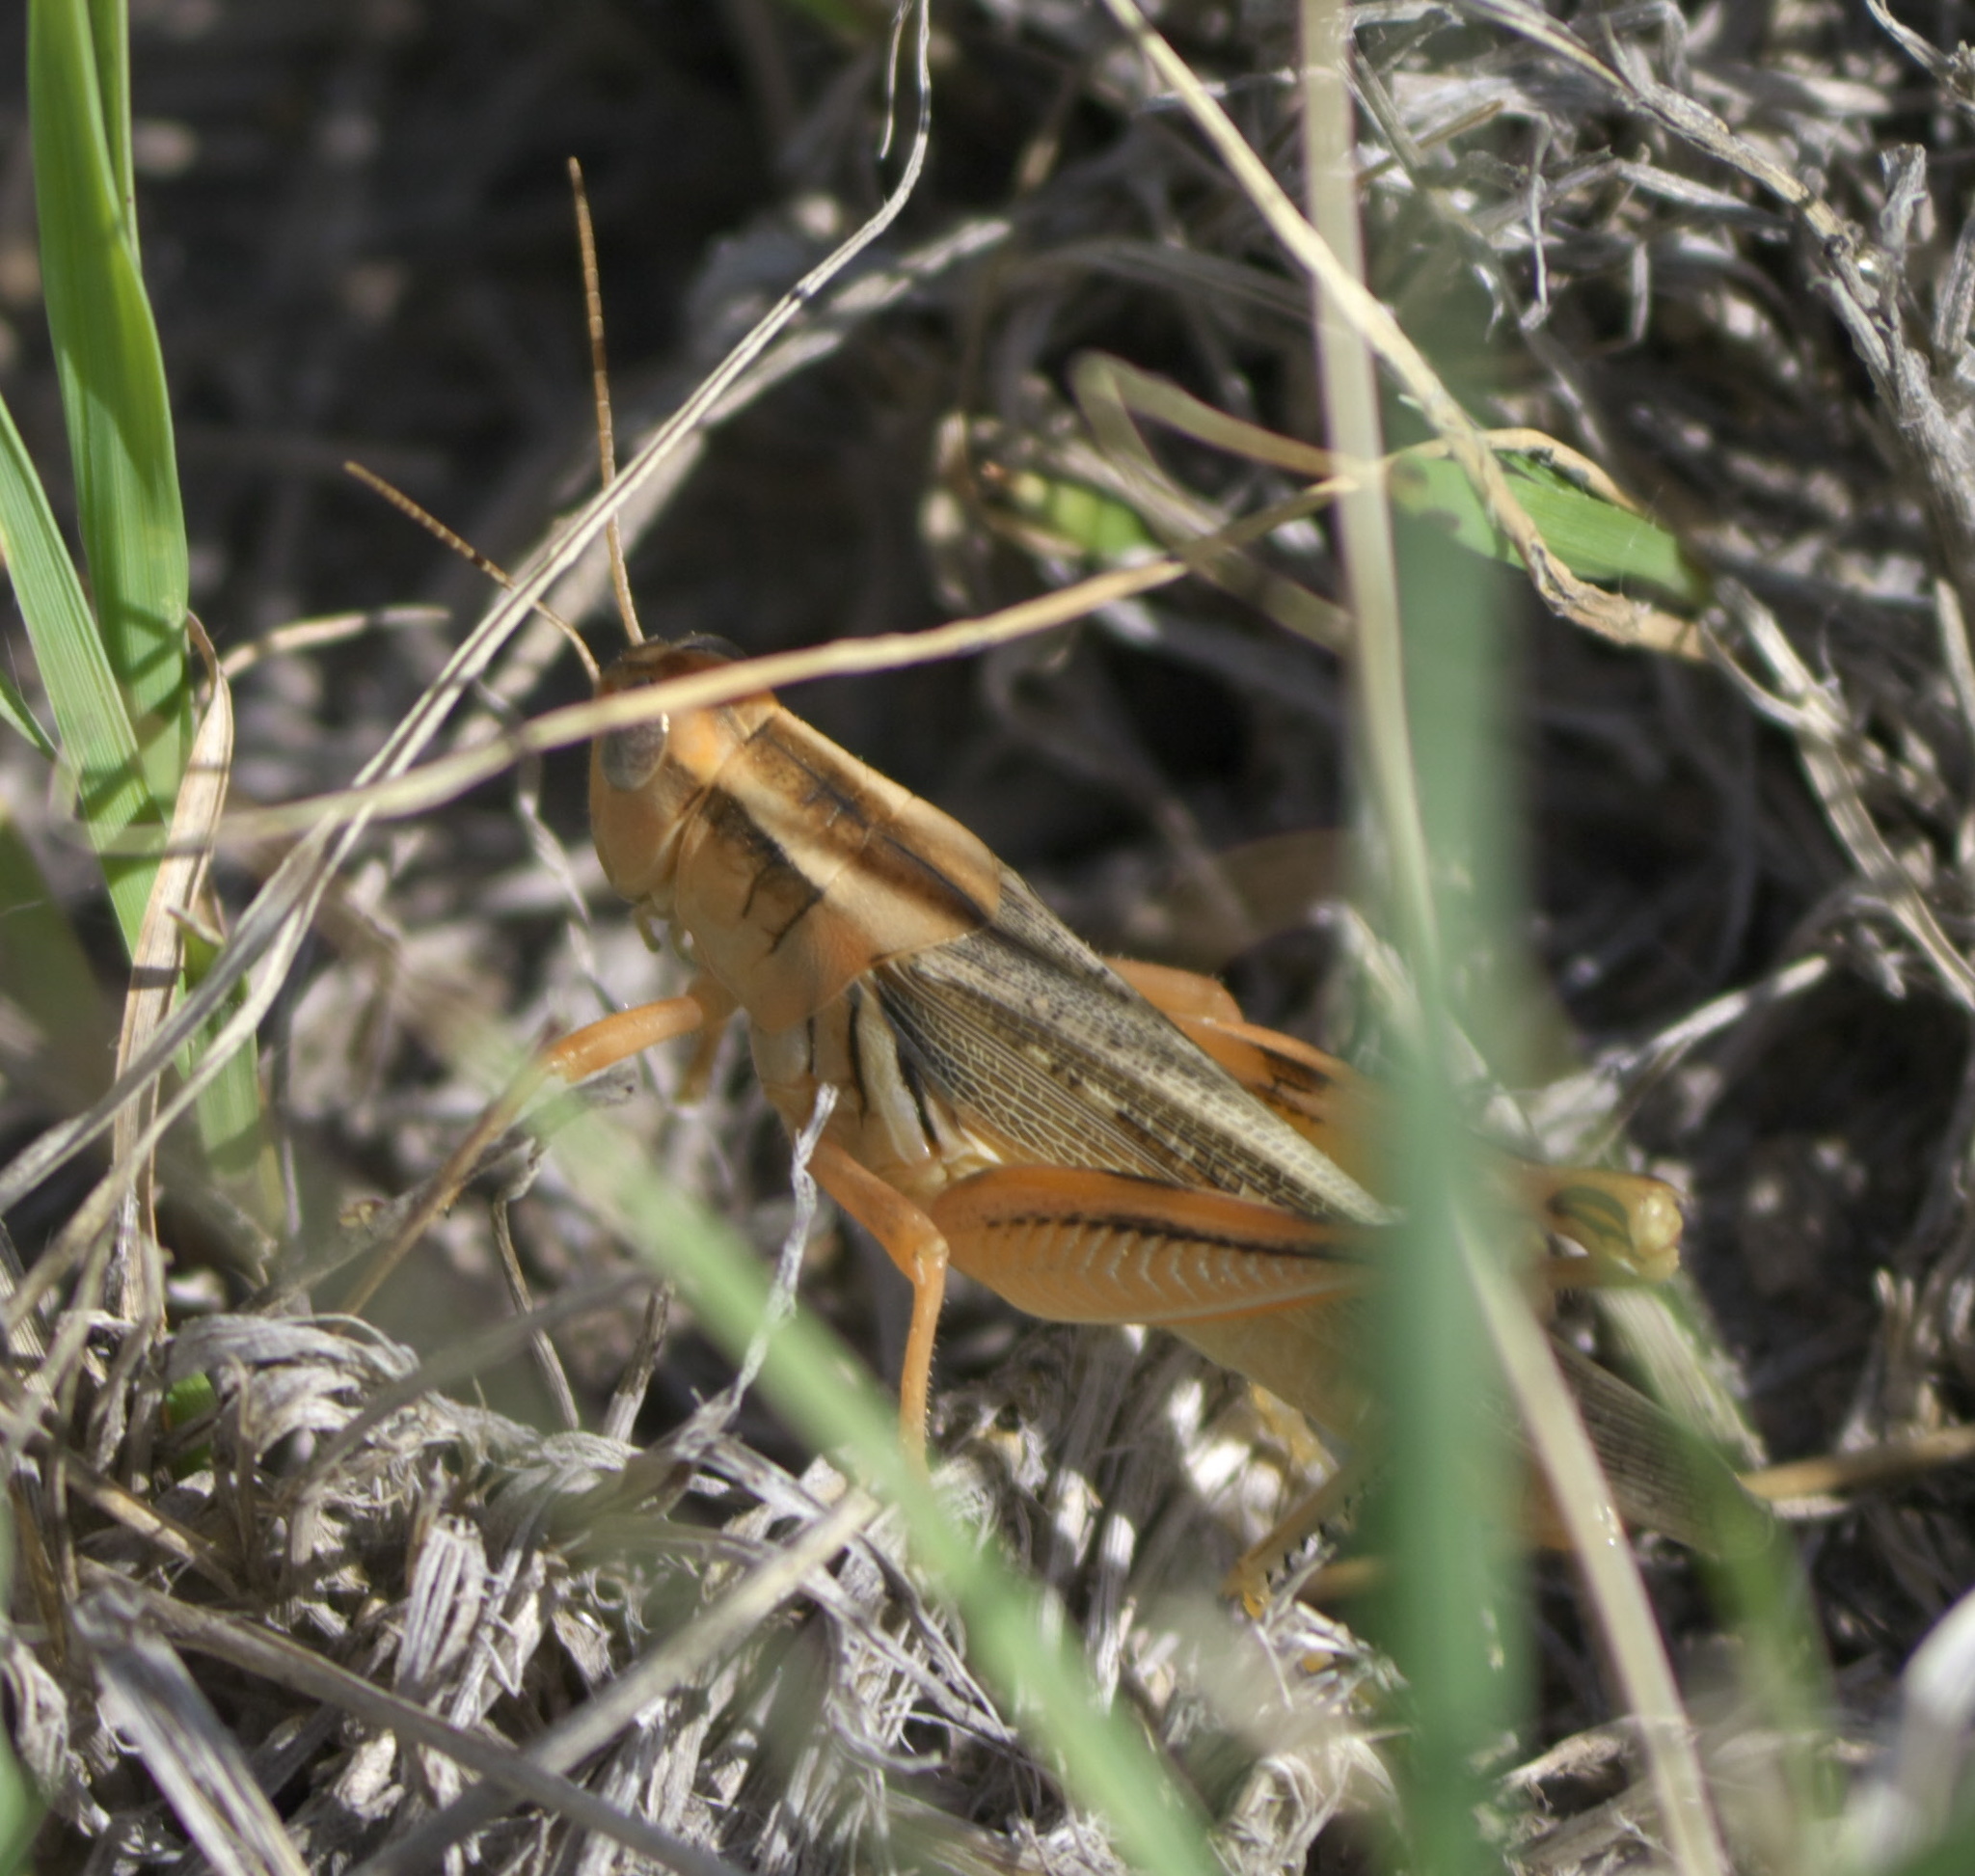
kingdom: Animalia
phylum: Arthropoda
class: Insecta
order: Orthoptera
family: Acrididae
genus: Melanoplus
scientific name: Melanoplus packardii
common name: Packard's grasshopper
